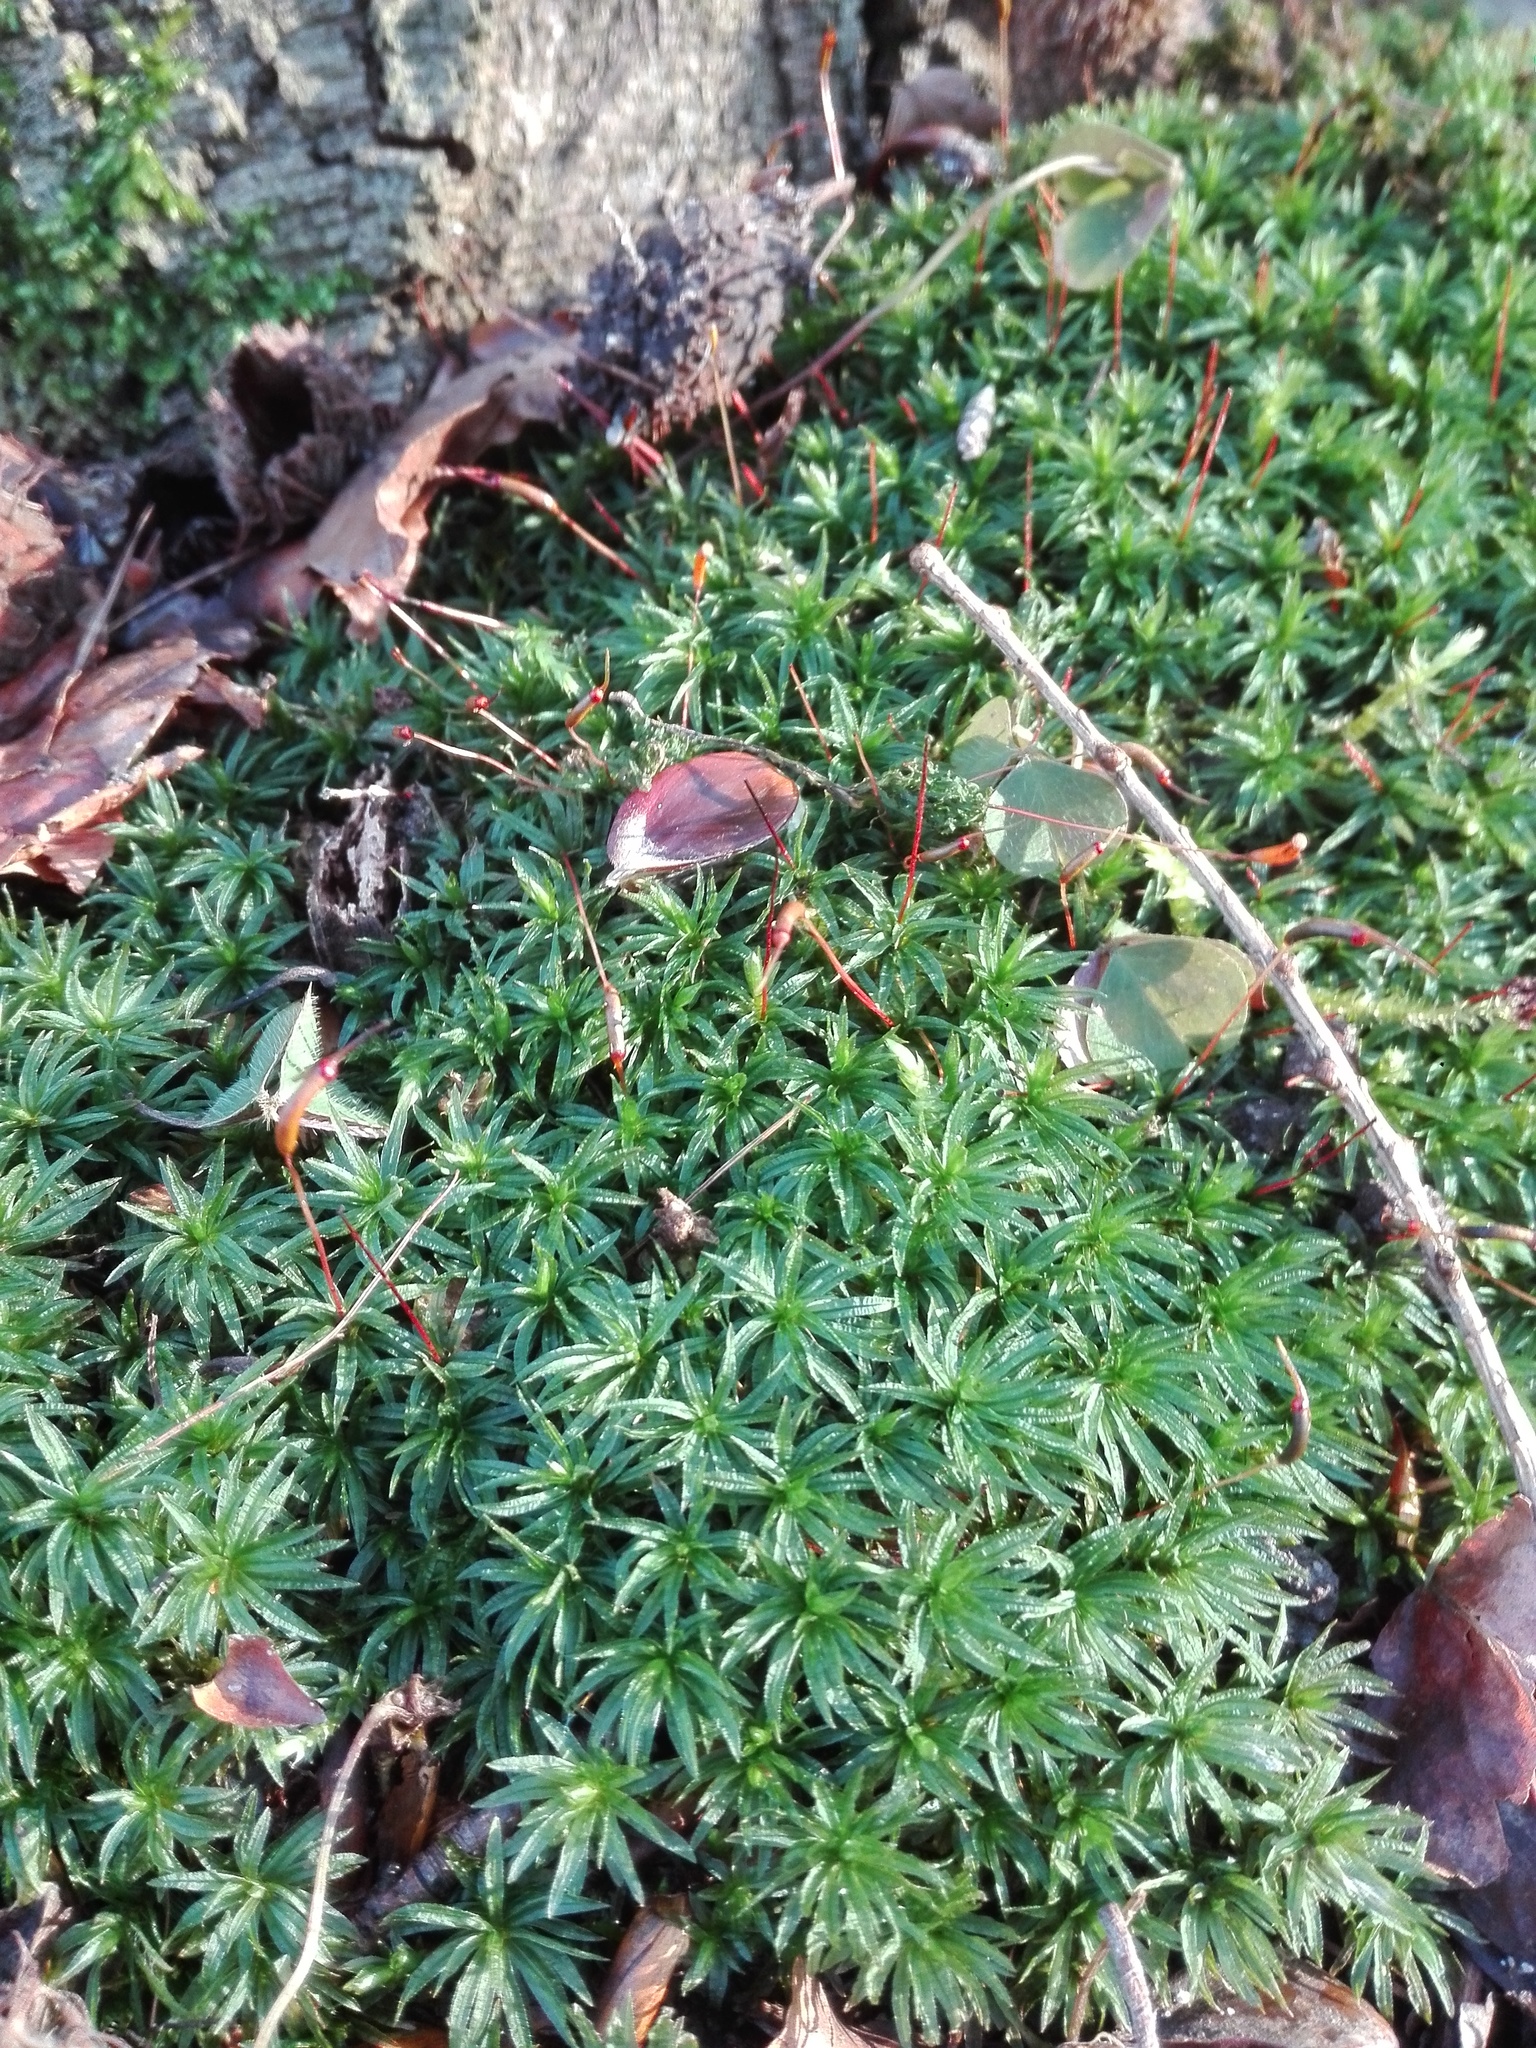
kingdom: Plantae
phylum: Bryophyta
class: Polytrichopsida
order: Polytrichales
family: Polytrichaceae
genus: Atrichum
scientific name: Atrichum undulatum
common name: Common smoothcap
